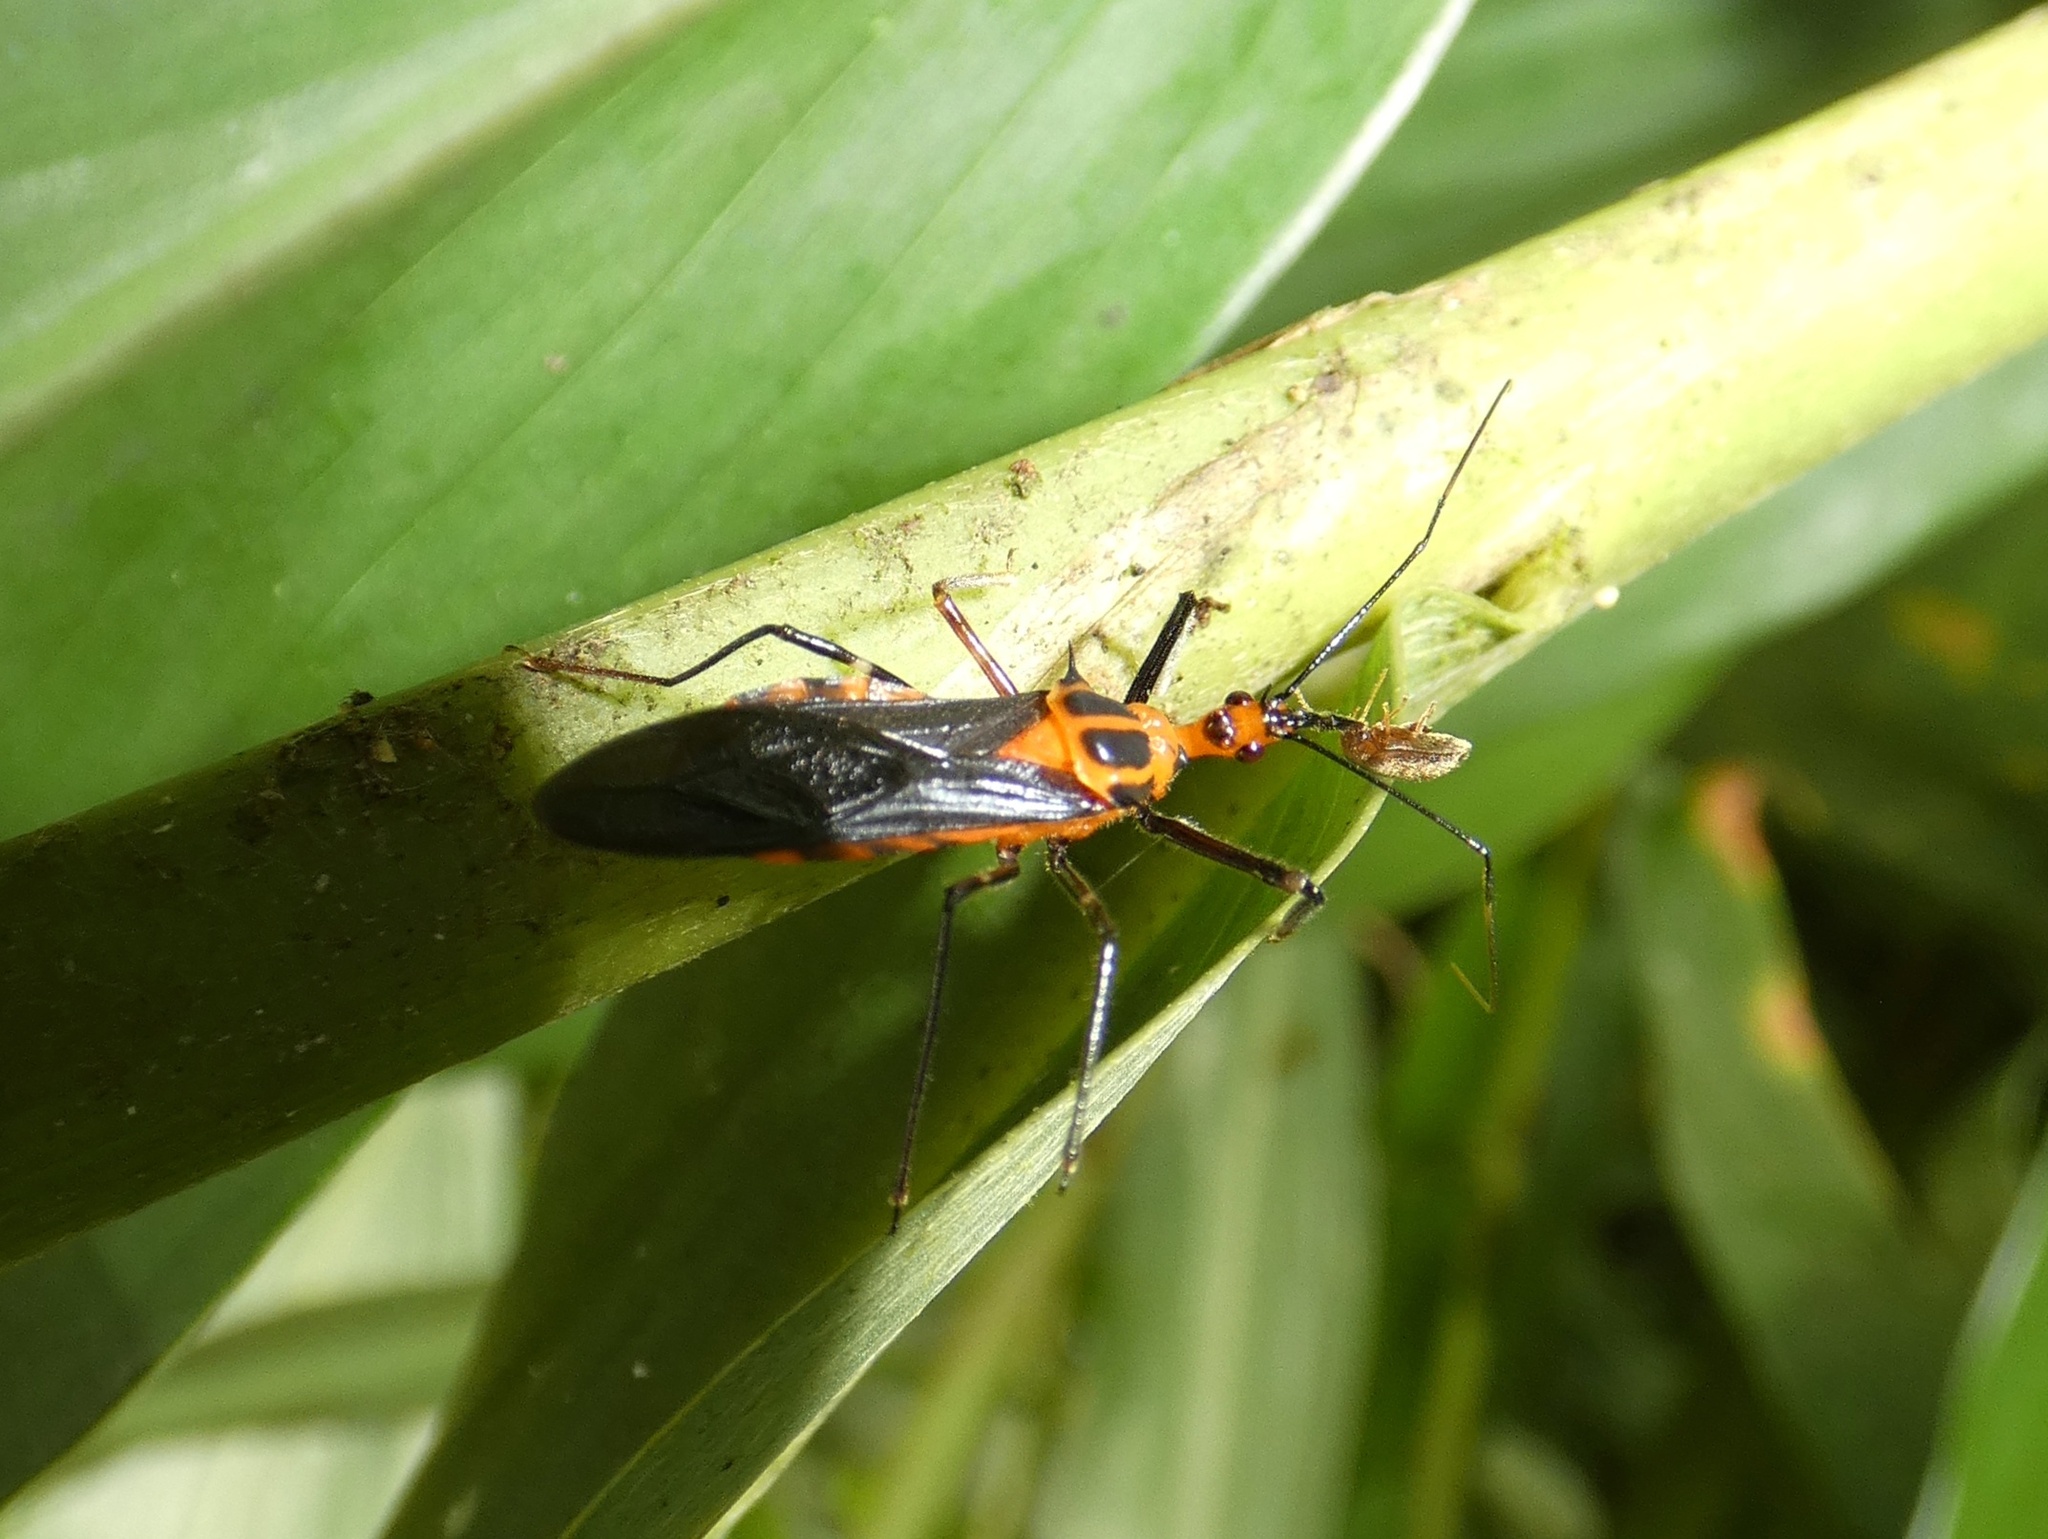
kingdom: Animalia
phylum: Arthropoda
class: Insecta
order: Hemiptera
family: Reduviidae
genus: Castolus
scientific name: Castolus rafaeli
